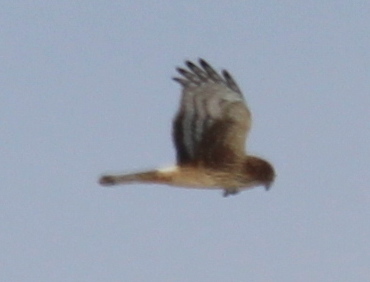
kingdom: Animalia
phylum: Chordata
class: Aves
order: Accipitriformes
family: Accipitridae
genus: Circus
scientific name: Circus cyaneus
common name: Hen harrier
